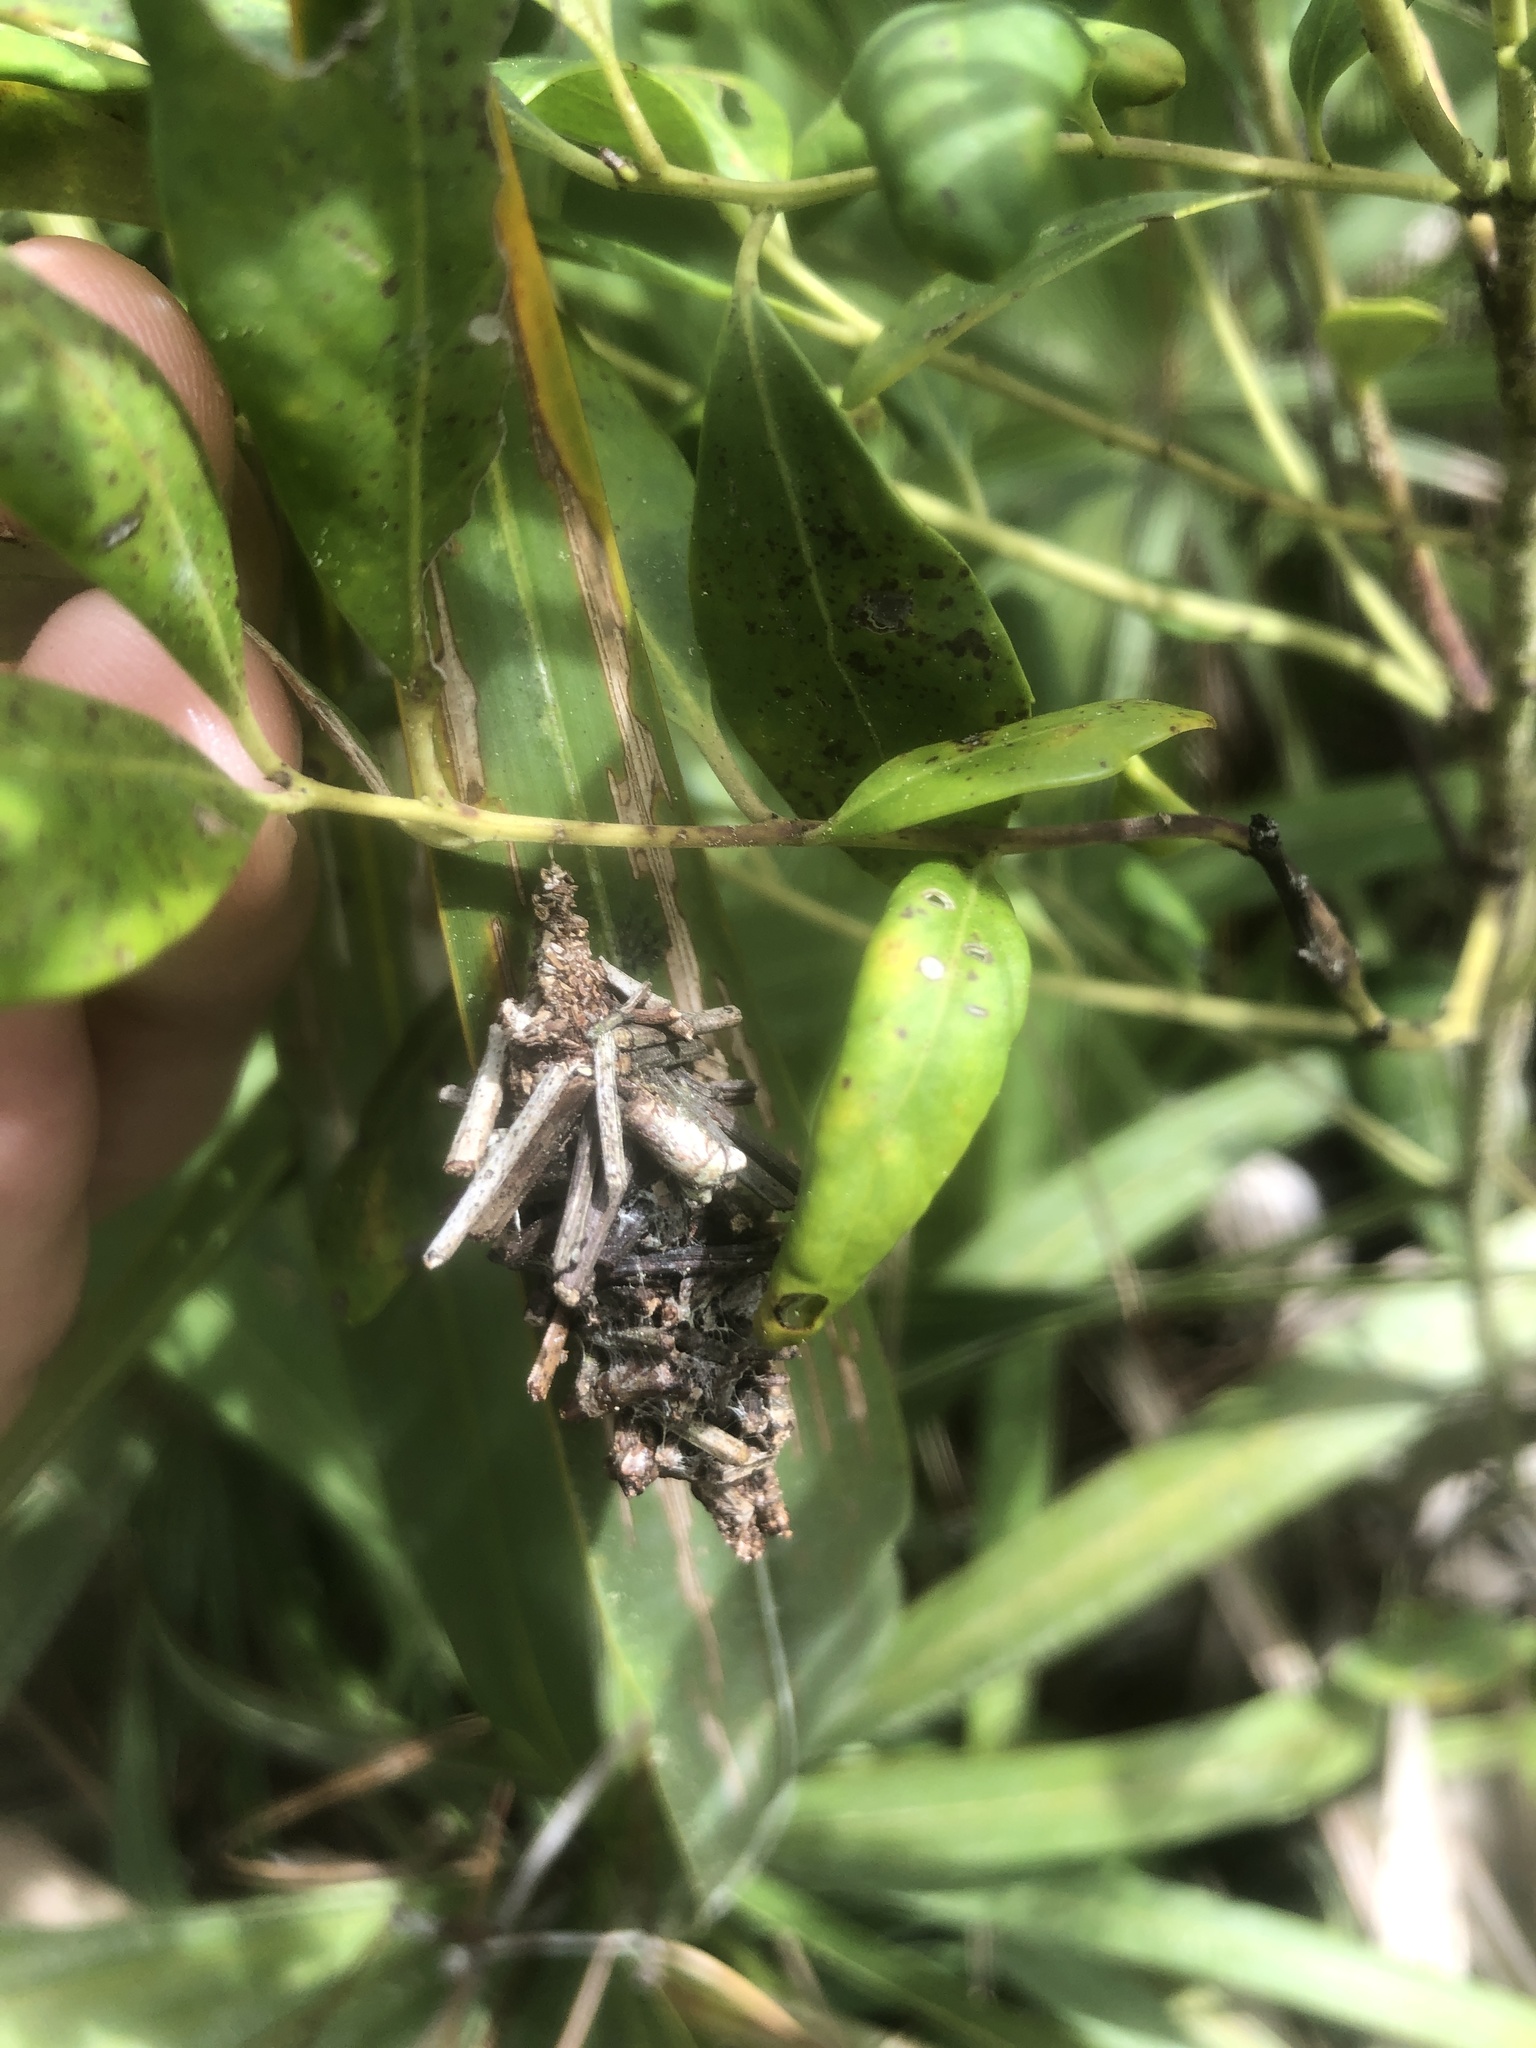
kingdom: Animalia
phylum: Arthropoda
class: Insecta
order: Lepidoptera
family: Psychidae
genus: Oiketicus
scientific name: Oiketicus
